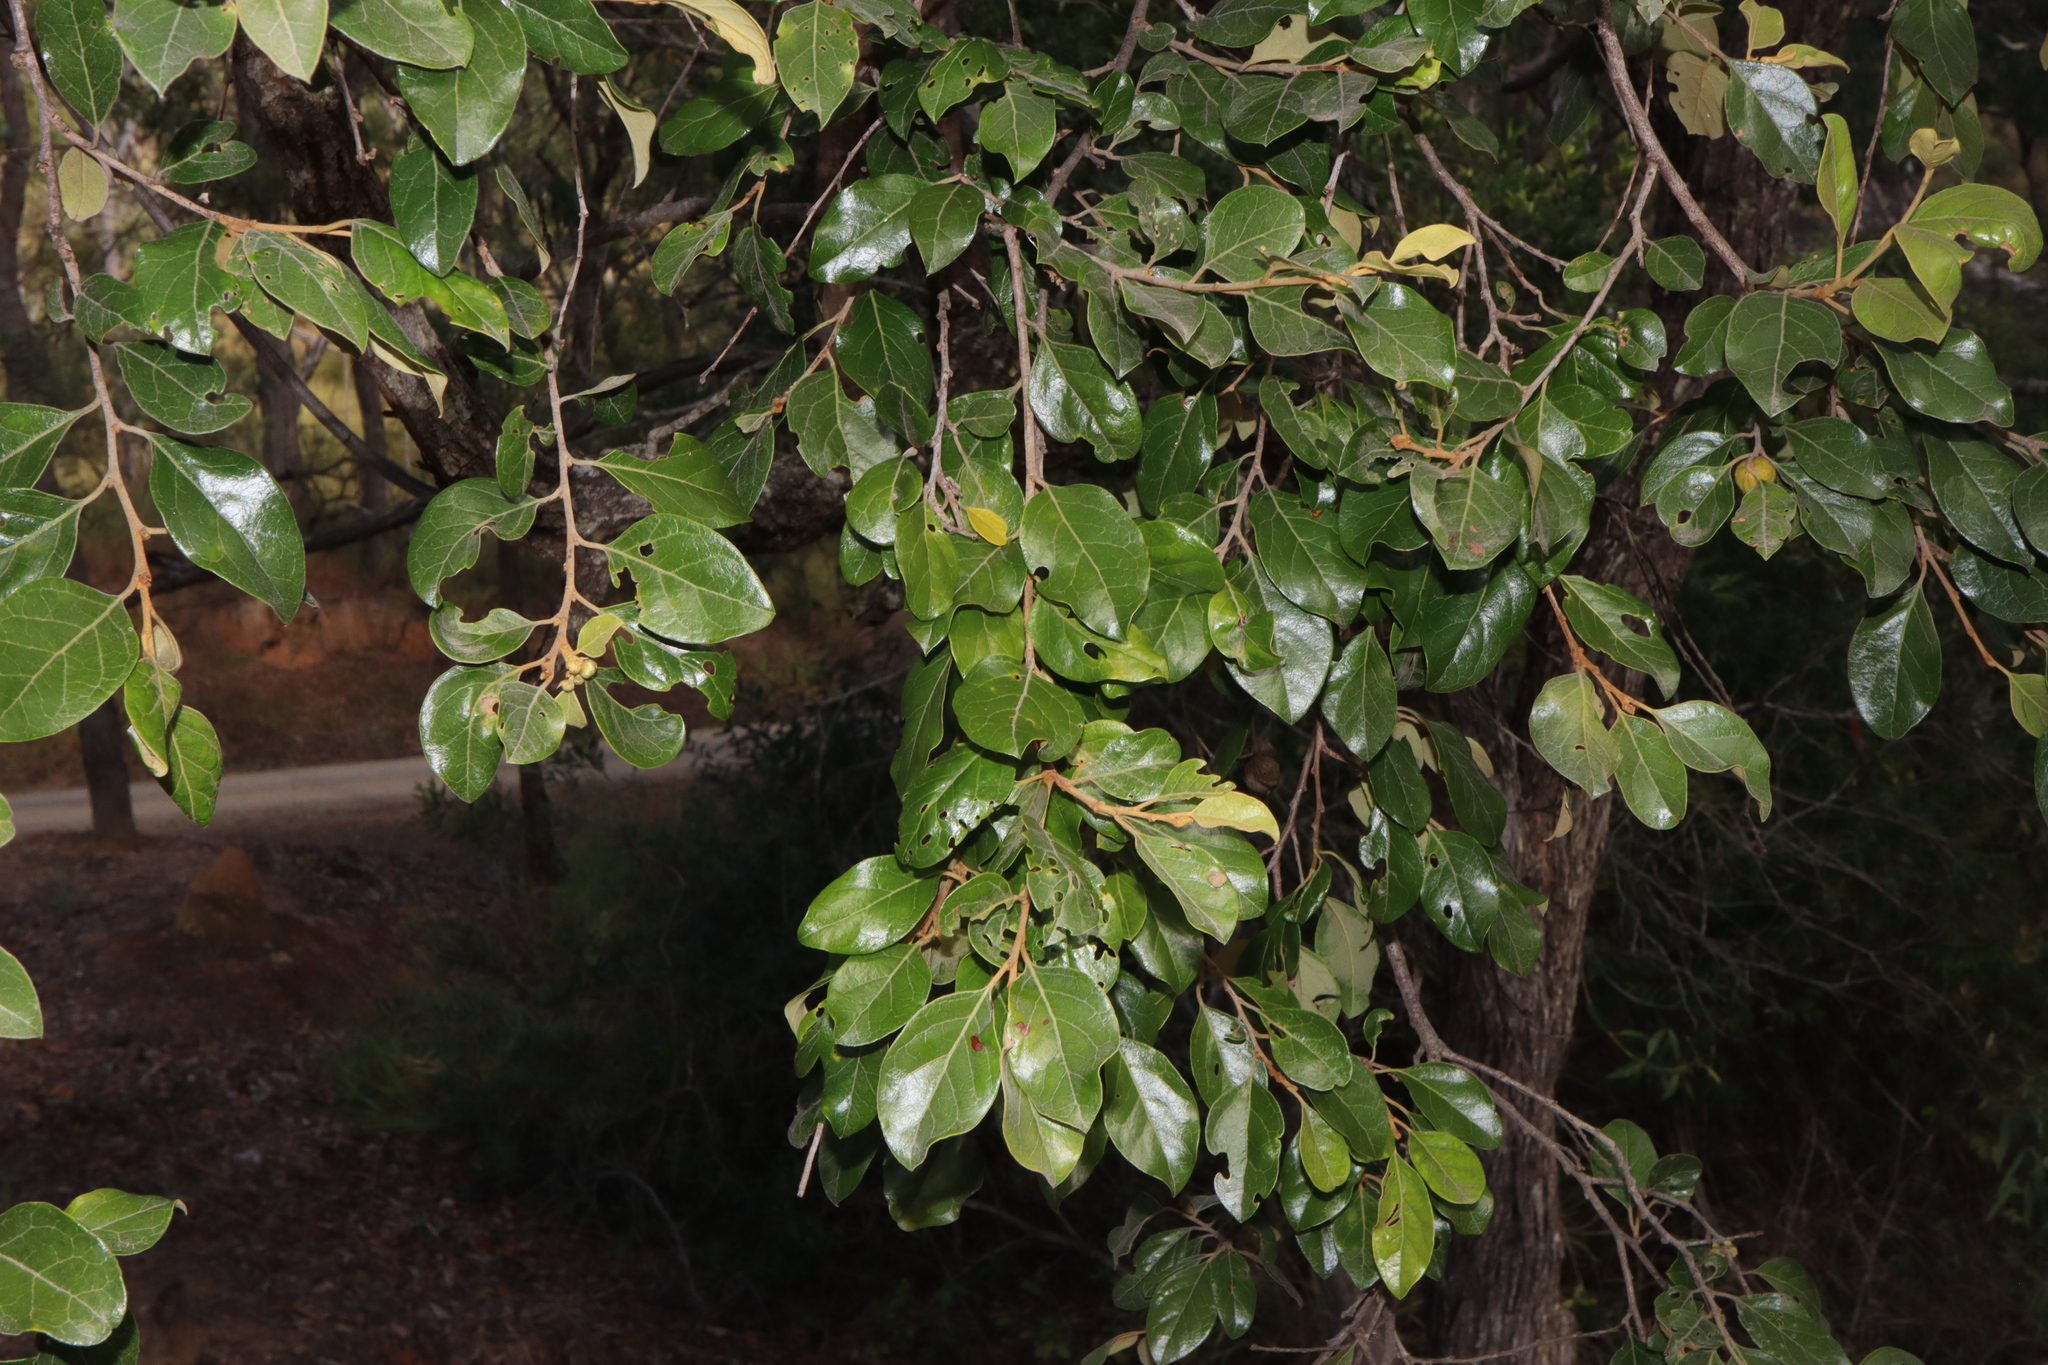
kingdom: Plantae
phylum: Tracheophyta
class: Magnoliopsida
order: Malpighiales
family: Picrodendraceae
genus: Petalostigma
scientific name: Petalostigma pubescens
